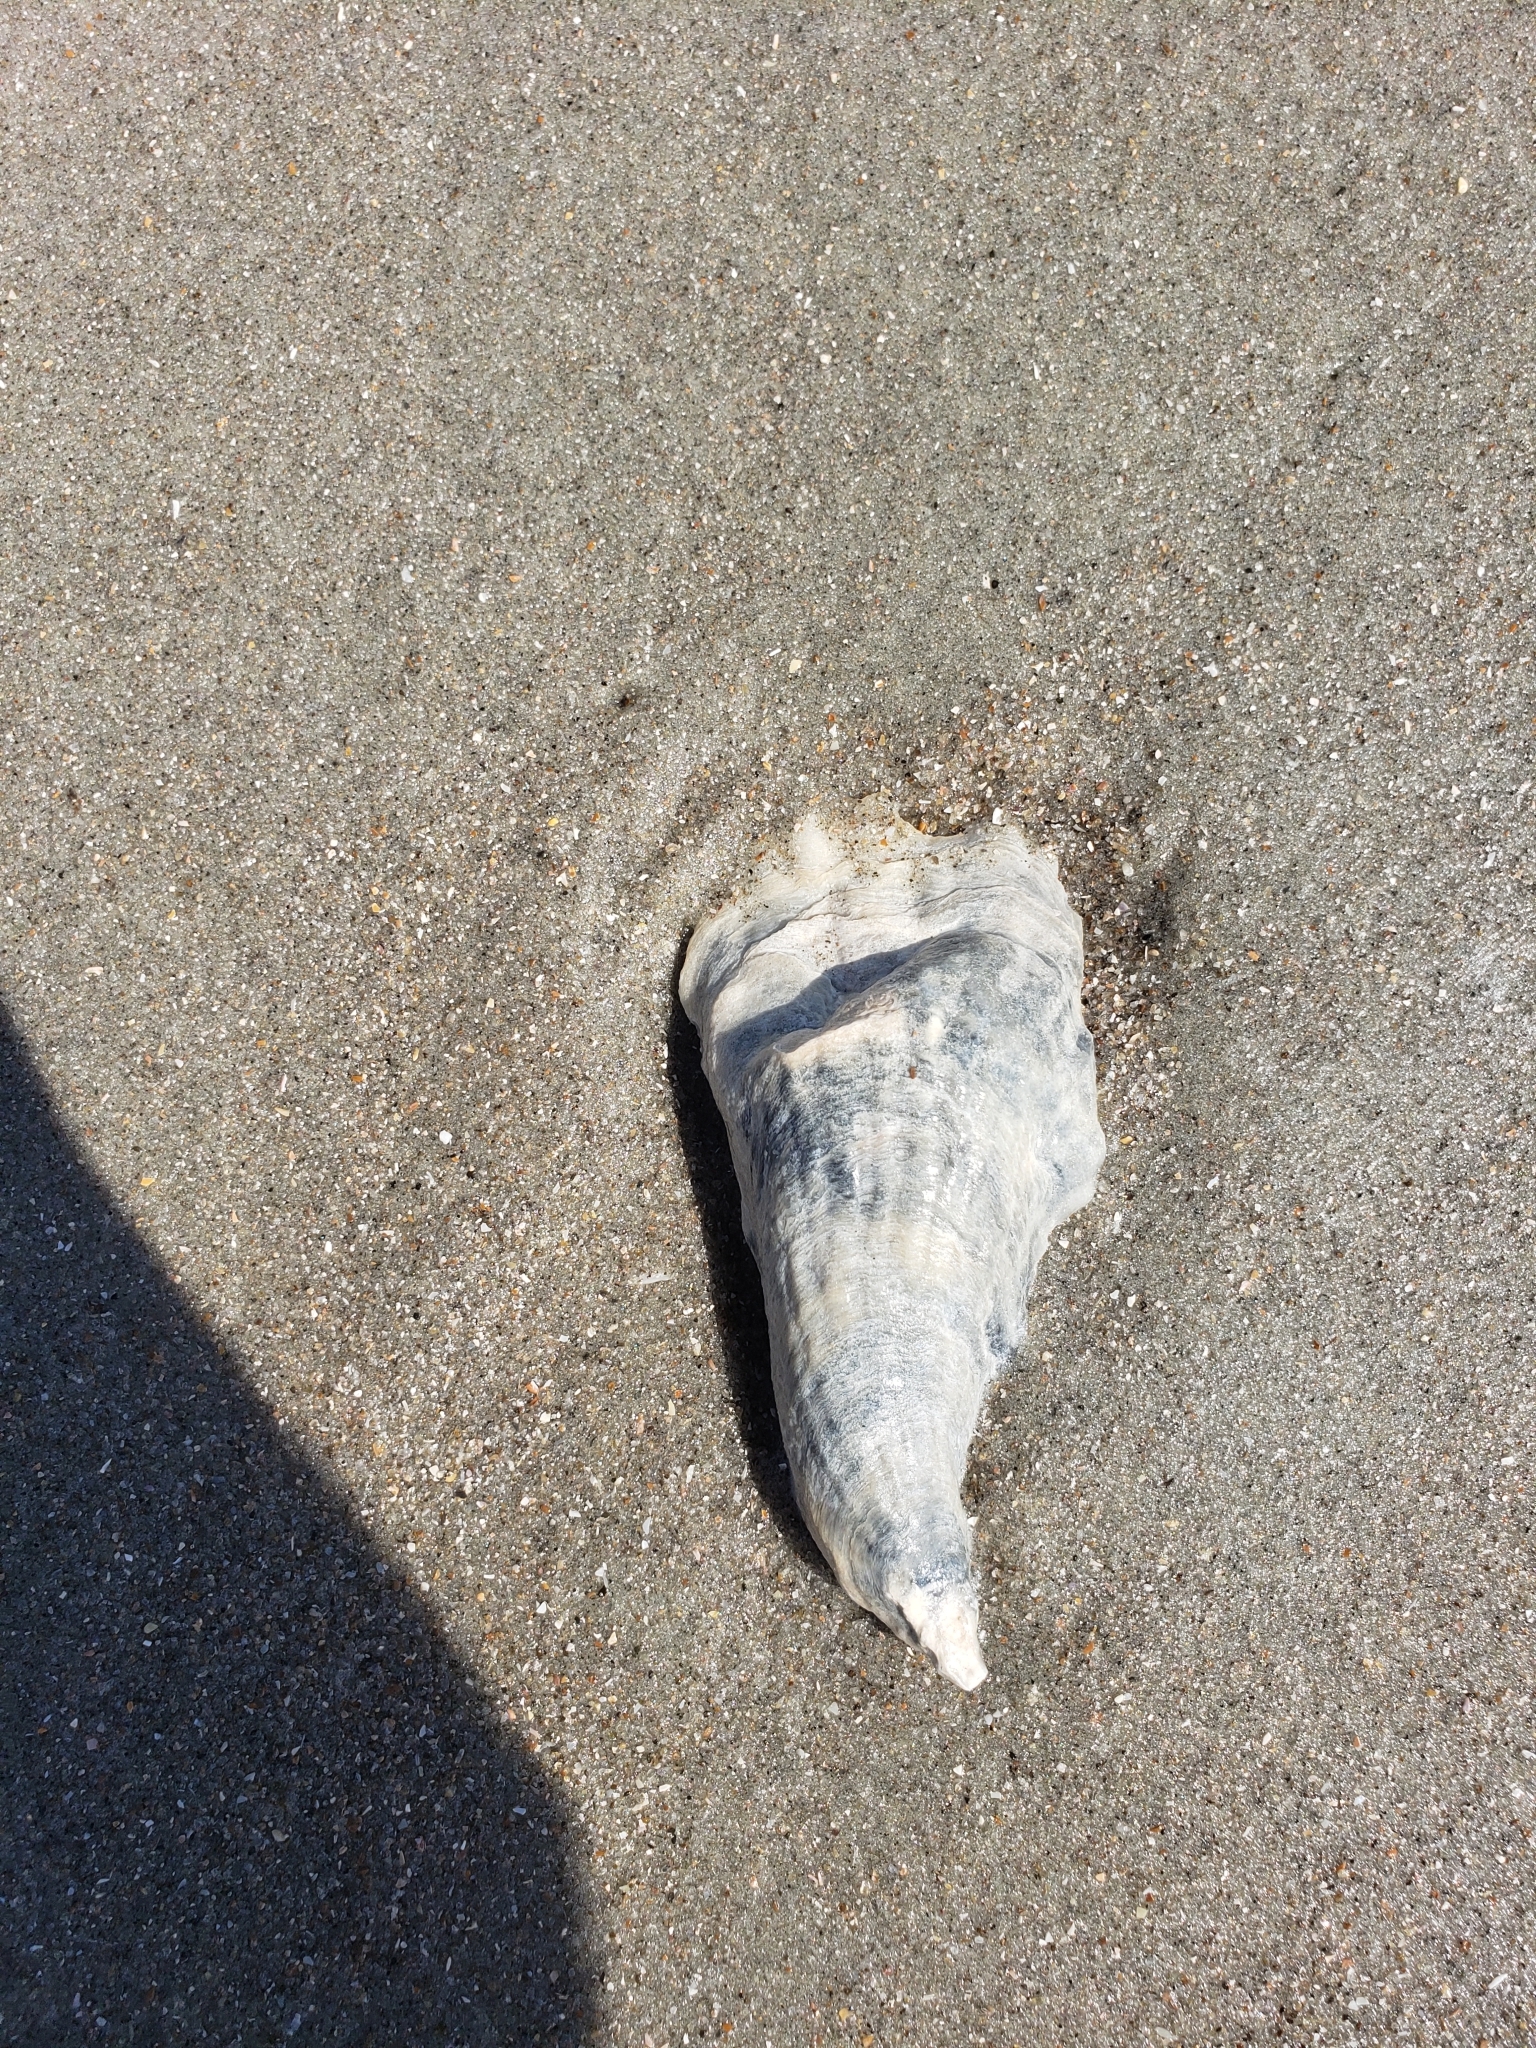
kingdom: Animalia
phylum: Mollusca
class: Bivalvia
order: Ostreida
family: Ostreidae
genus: Crassostrea
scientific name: Crassostrea virginica
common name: American oyster
